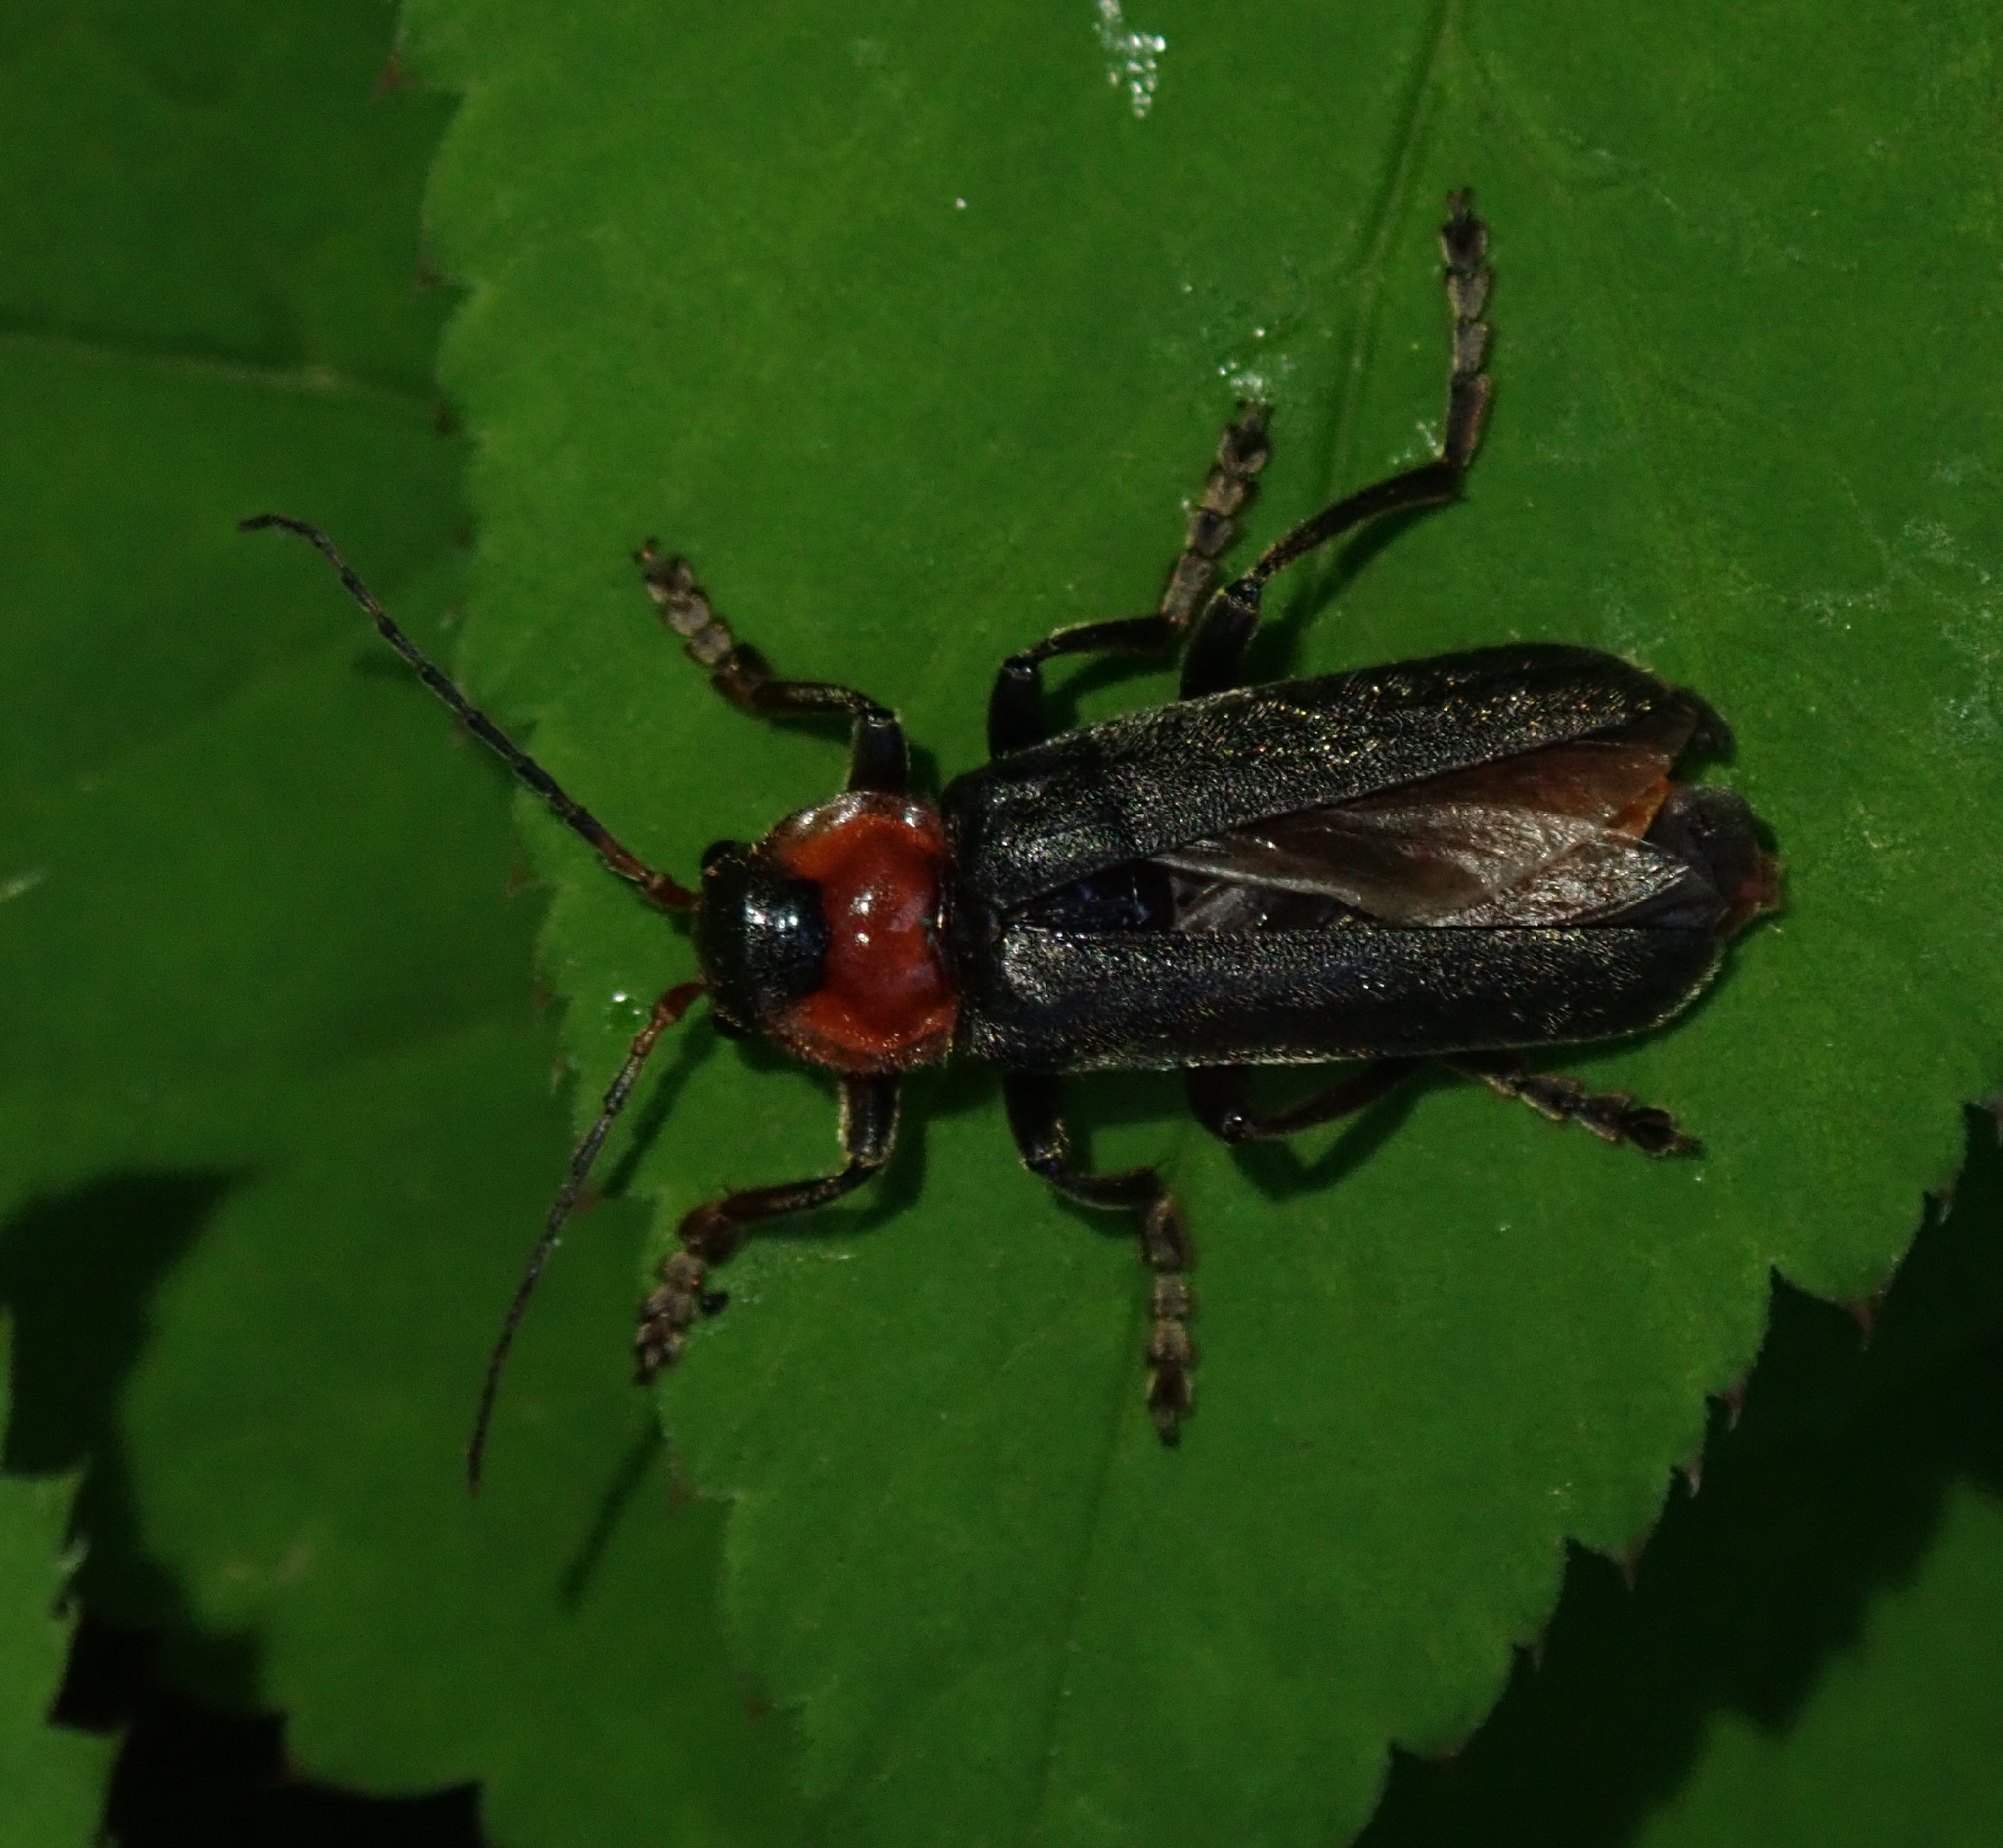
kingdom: Animalia
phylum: Arthropoda
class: Insecta
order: Coleoptera
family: Cantharidae
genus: Cantharis
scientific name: Cantharis fusca
